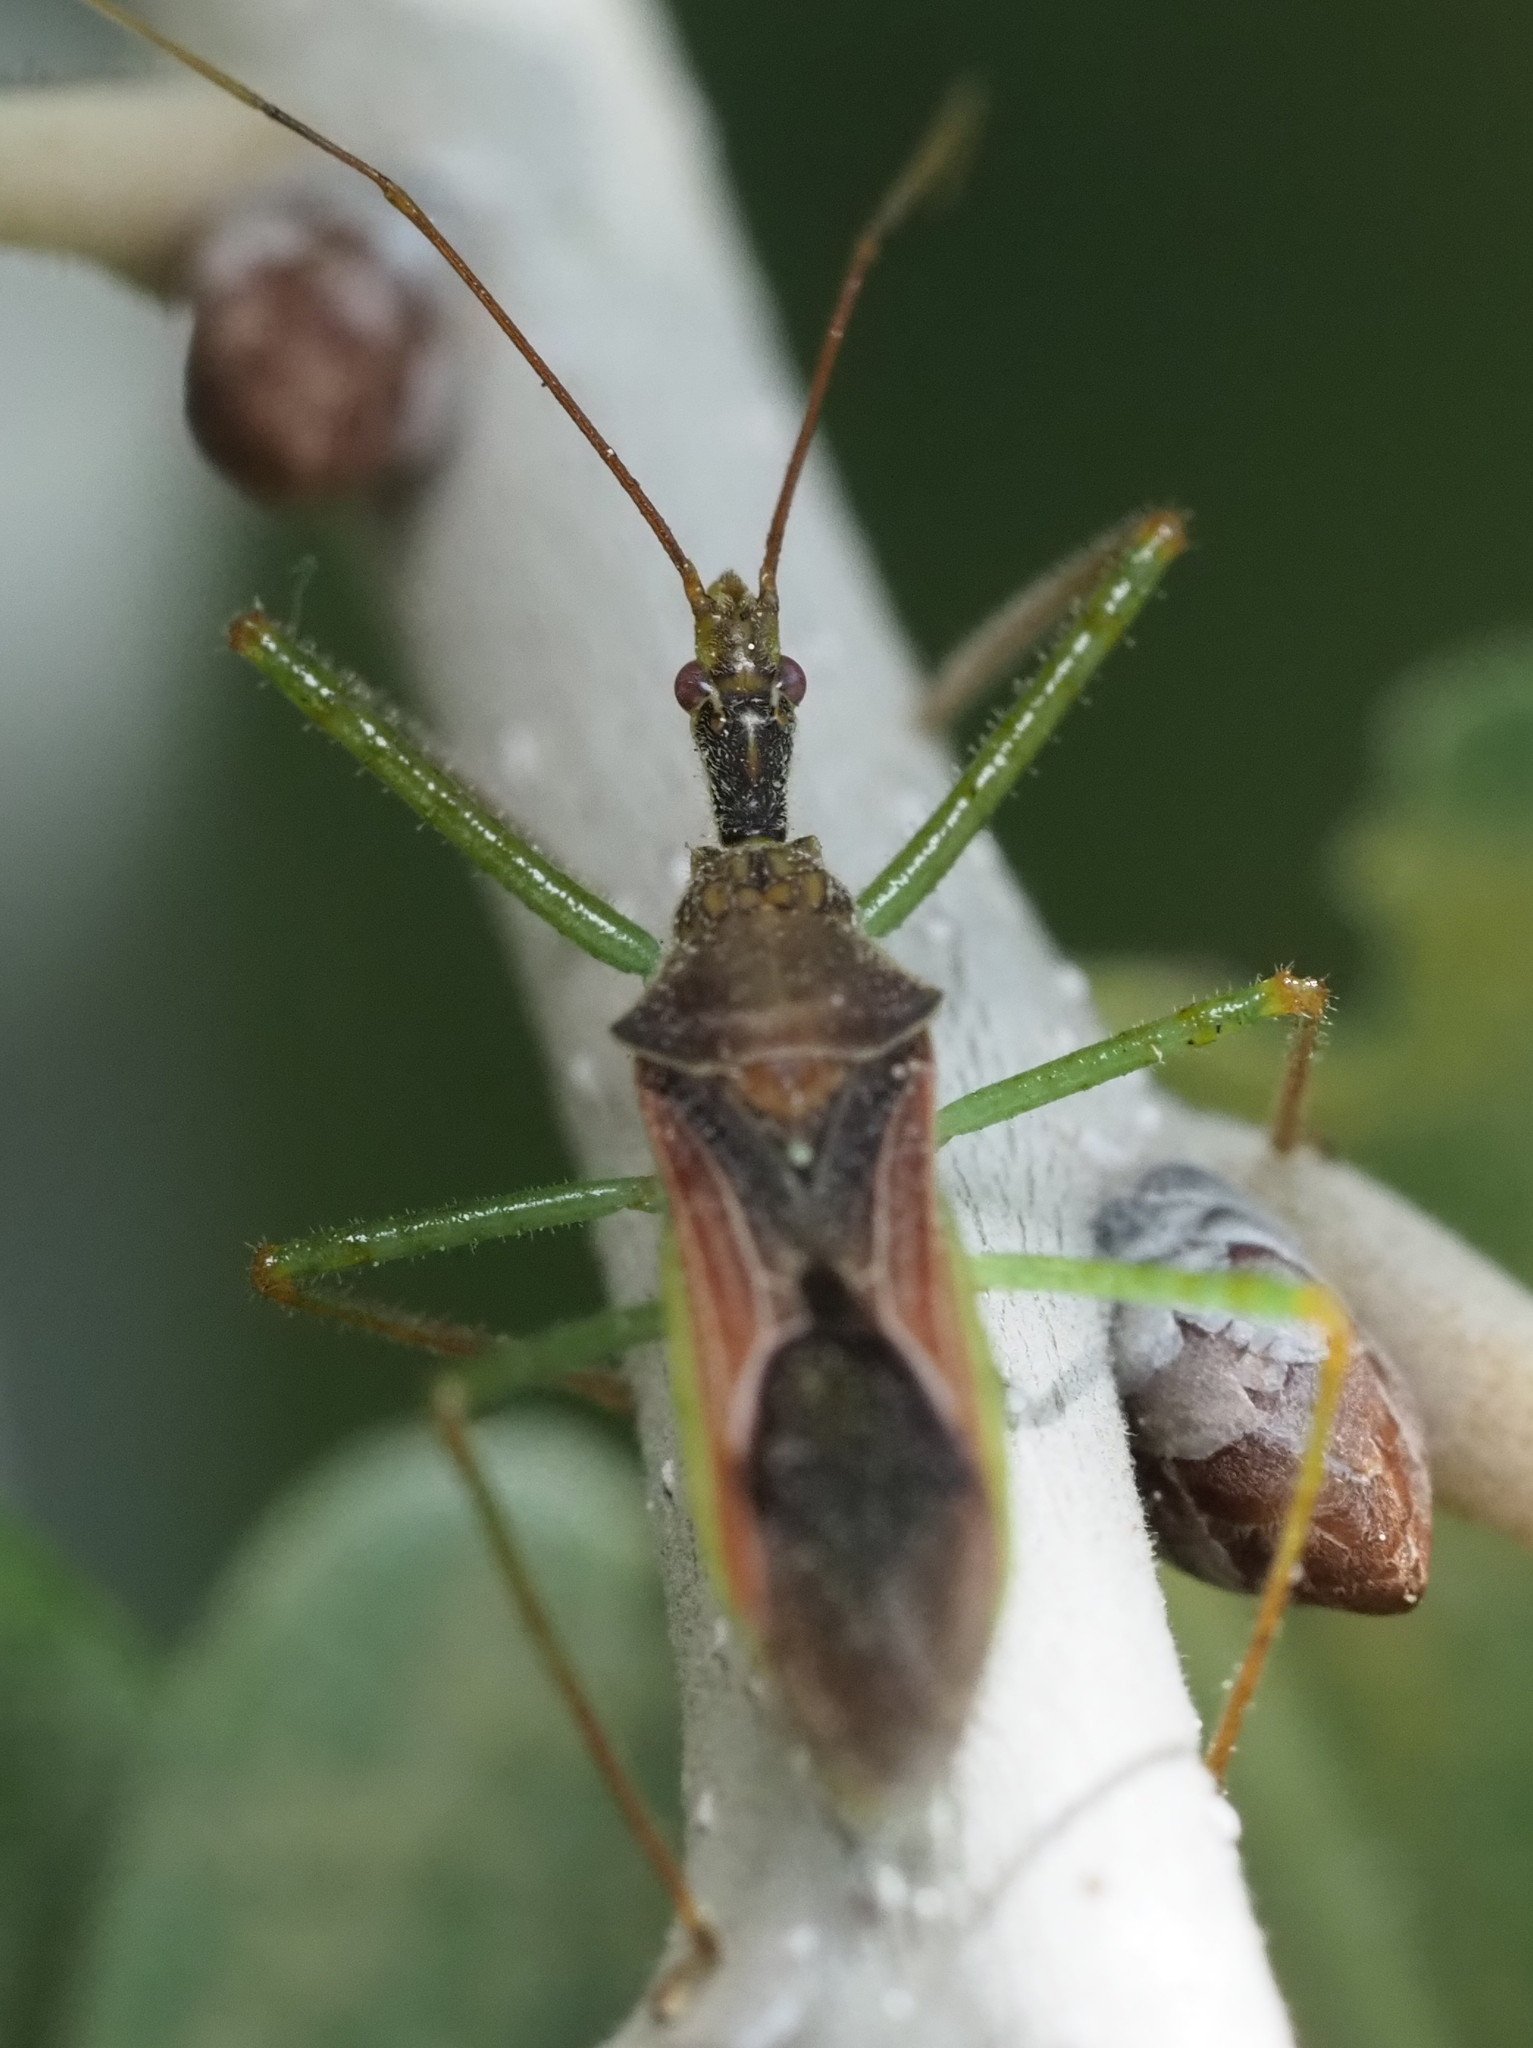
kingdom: Animalia
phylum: Arthropoda
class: Insecta
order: Hemiptera
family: Reduviidae
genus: Zelus
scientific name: Zelus renardii
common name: Assassin bug
